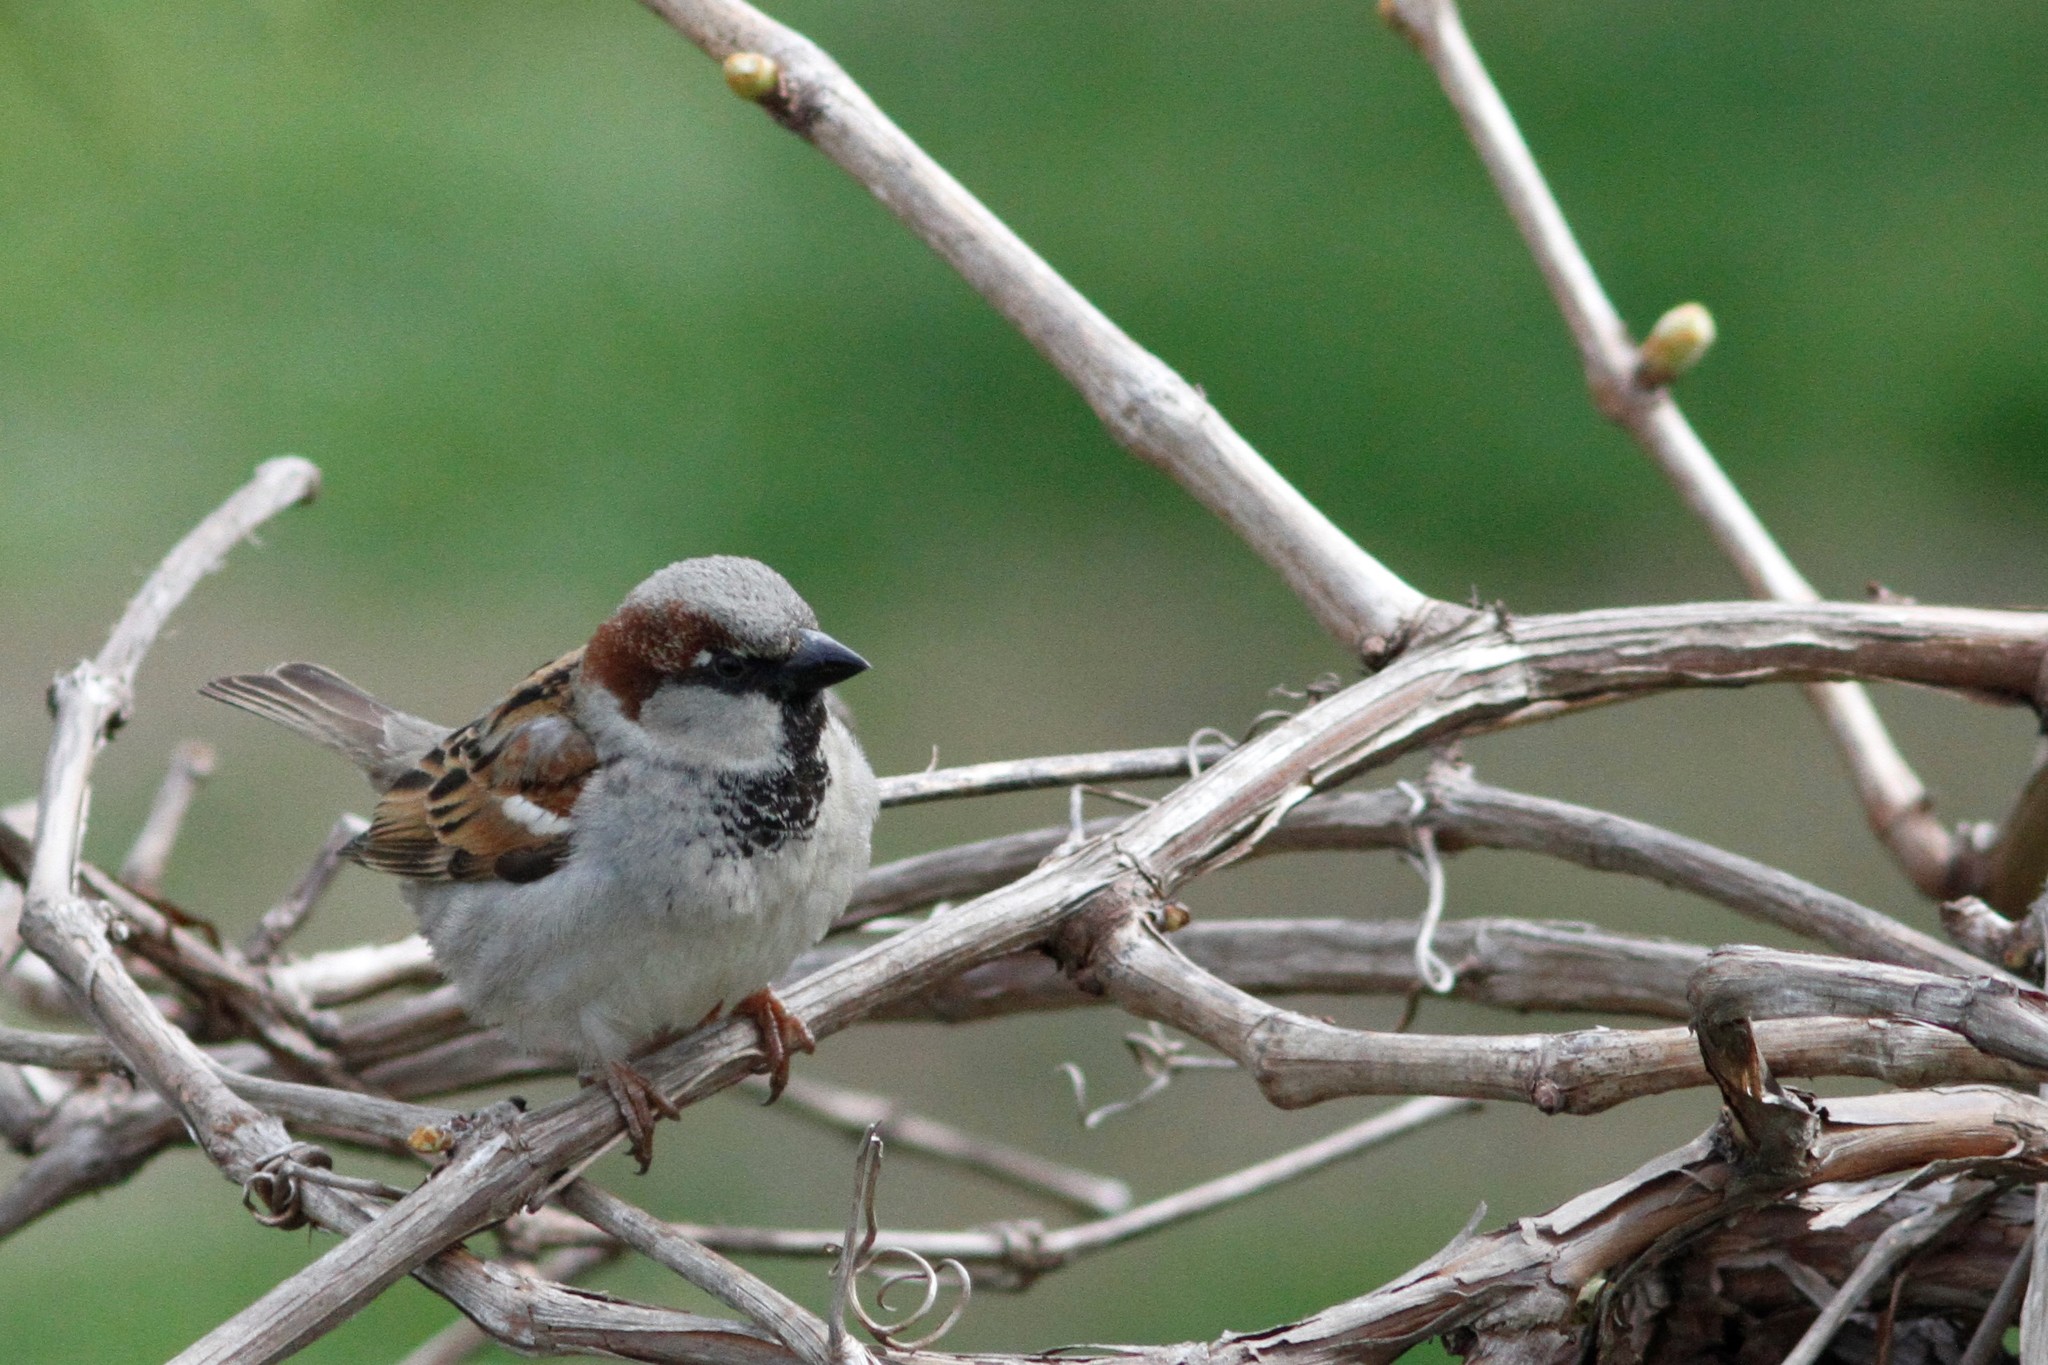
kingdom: Animalia
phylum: Chordata
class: Aves
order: Passeriformes
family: Passeridae
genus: Passer
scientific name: Passer domesticus
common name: House sparrow
